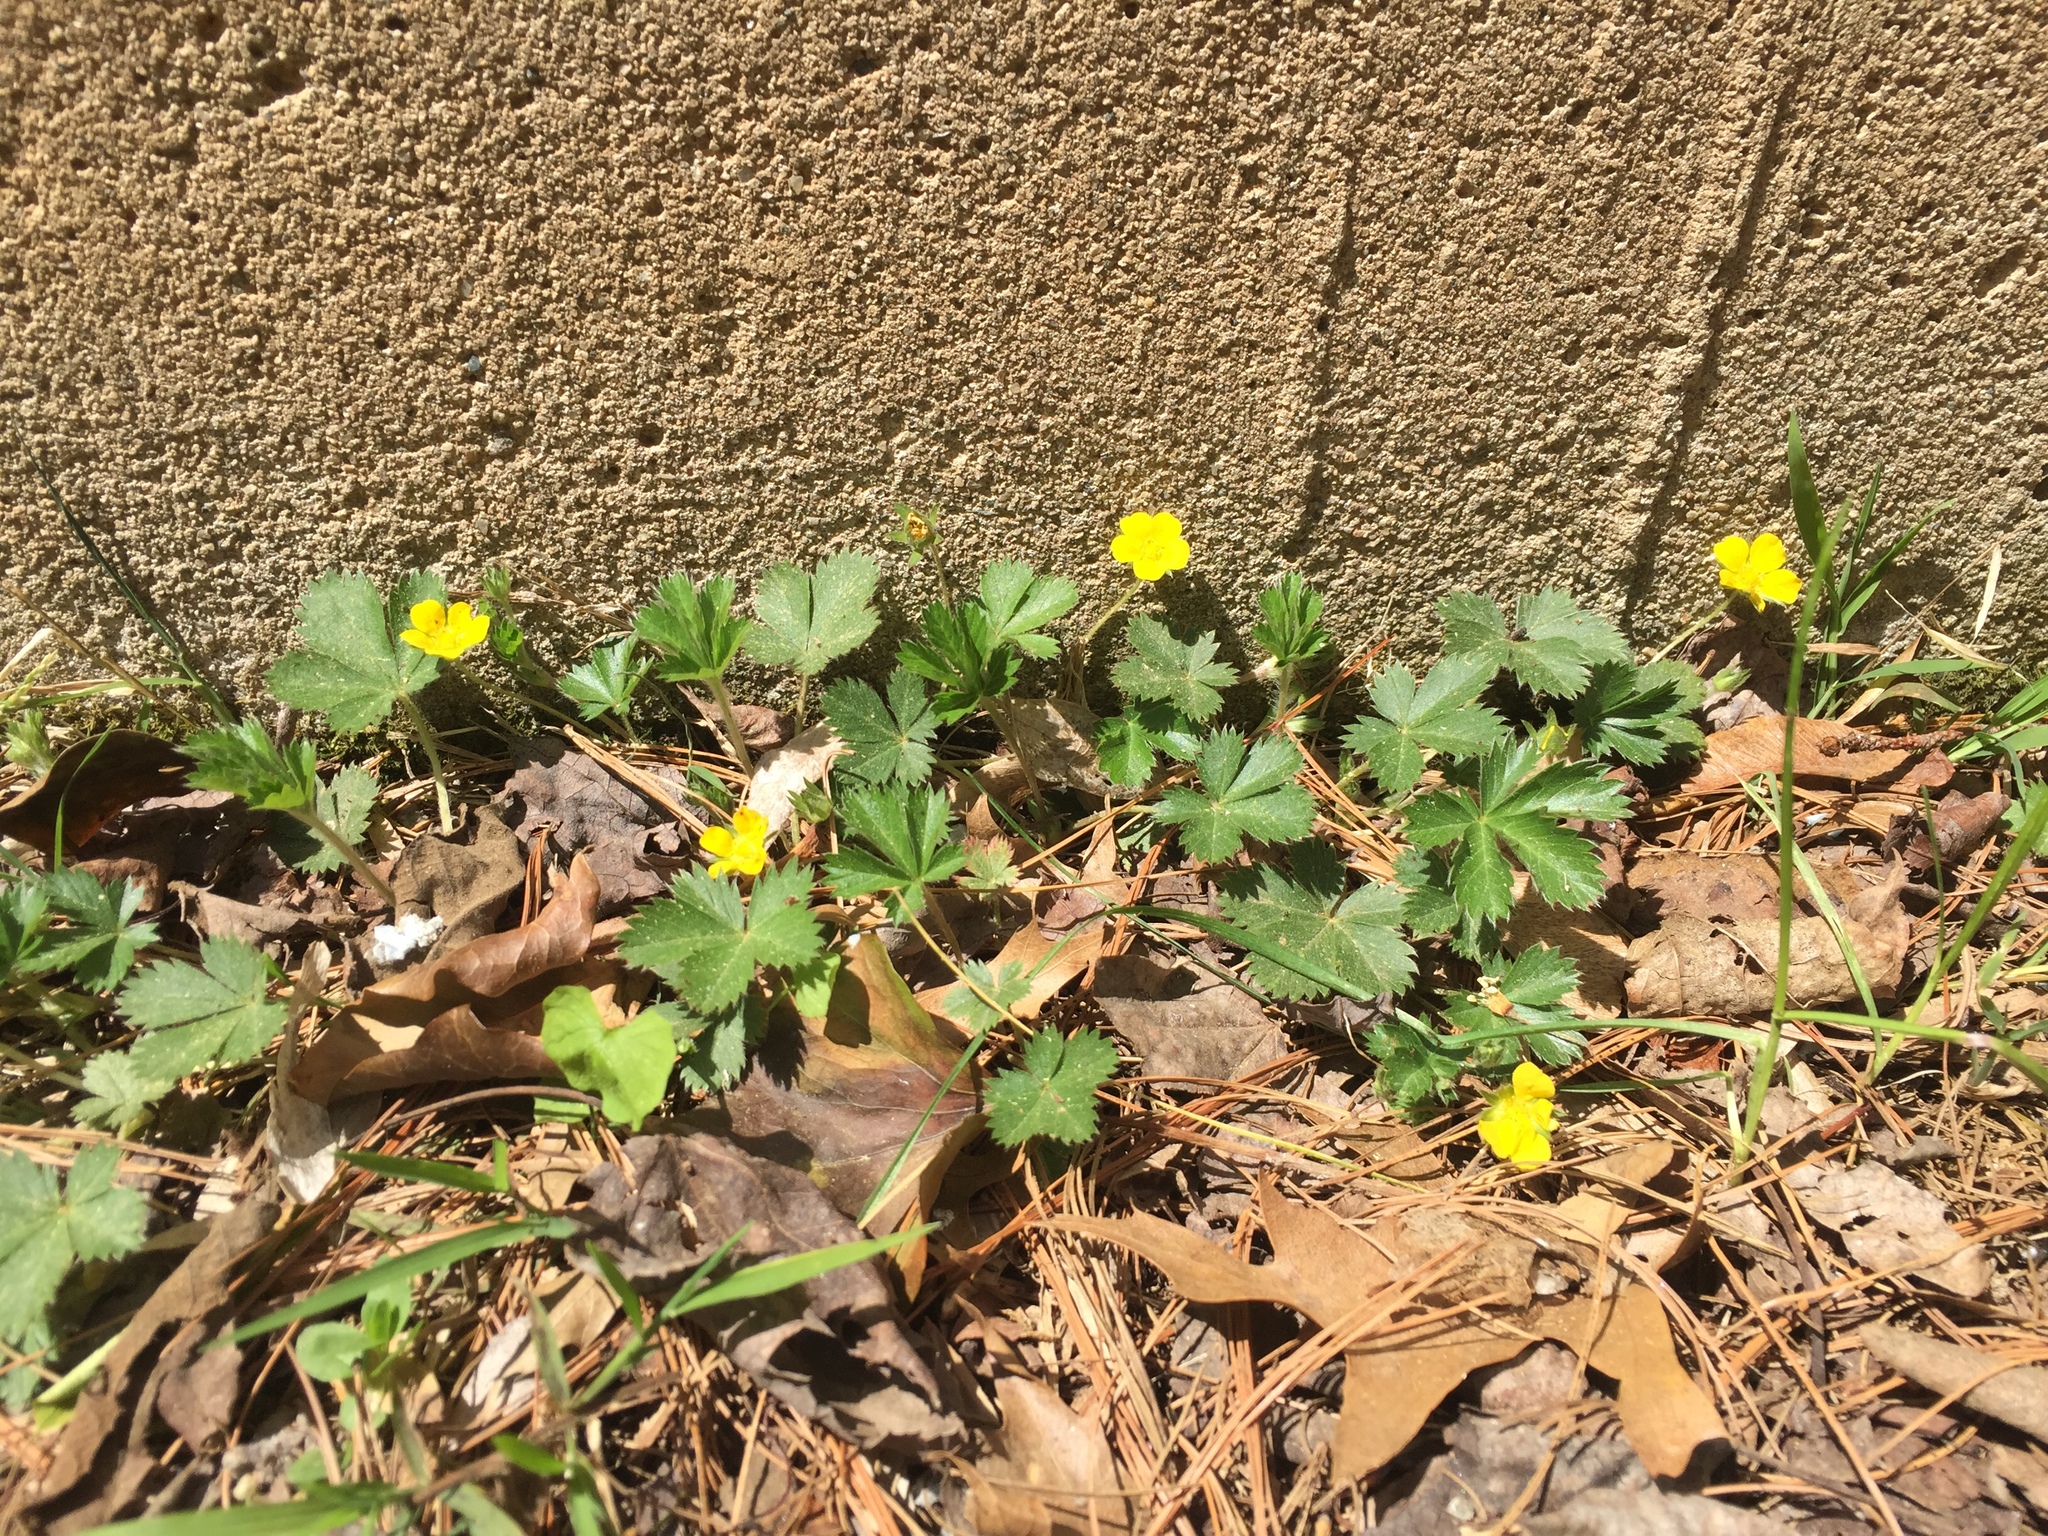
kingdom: Plantae
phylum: Tracheophyta
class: Magnoliopsida
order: Rosales
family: Rosaceae
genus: Potentilla
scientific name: Potentilla canadensis
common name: Canada cinquefoil
